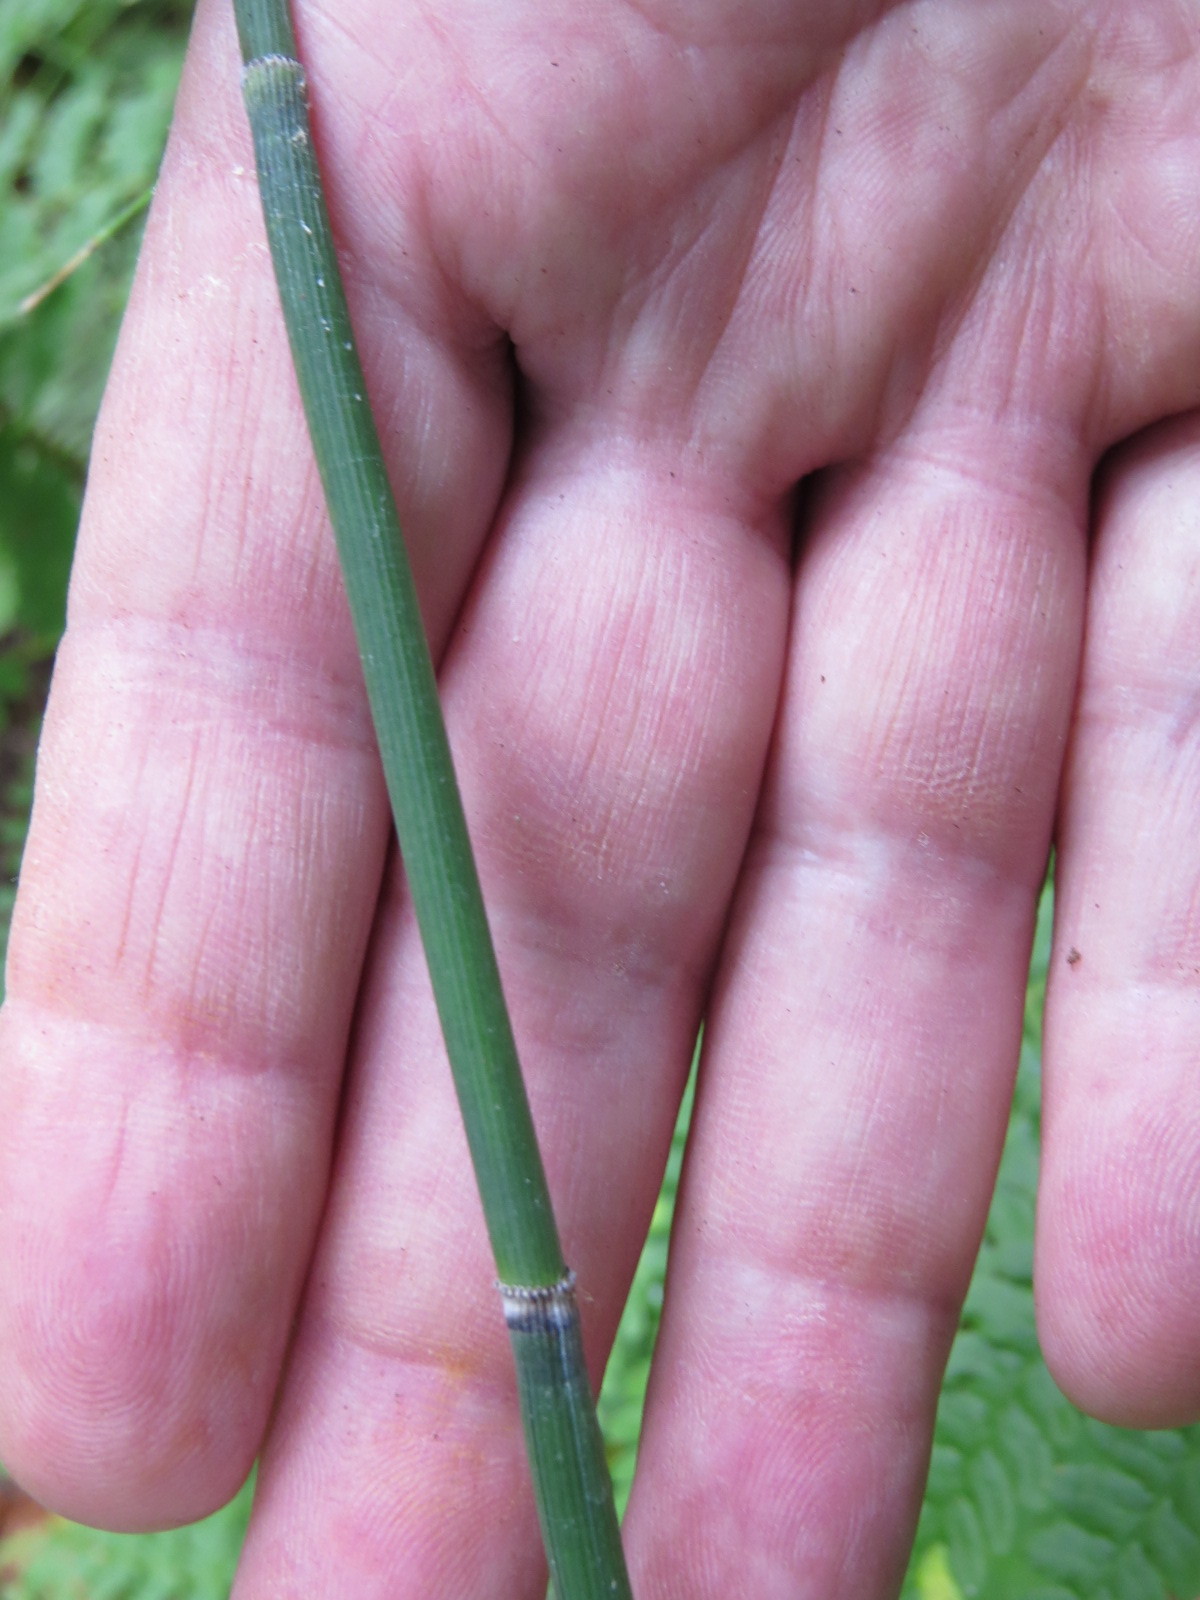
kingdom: Plantae
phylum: Tracheophyta
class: Polypodiopsida
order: Equisetales
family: Equisetaceae
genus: Equisetum
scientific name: Equisetum hyemale
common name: Rough horsetail
